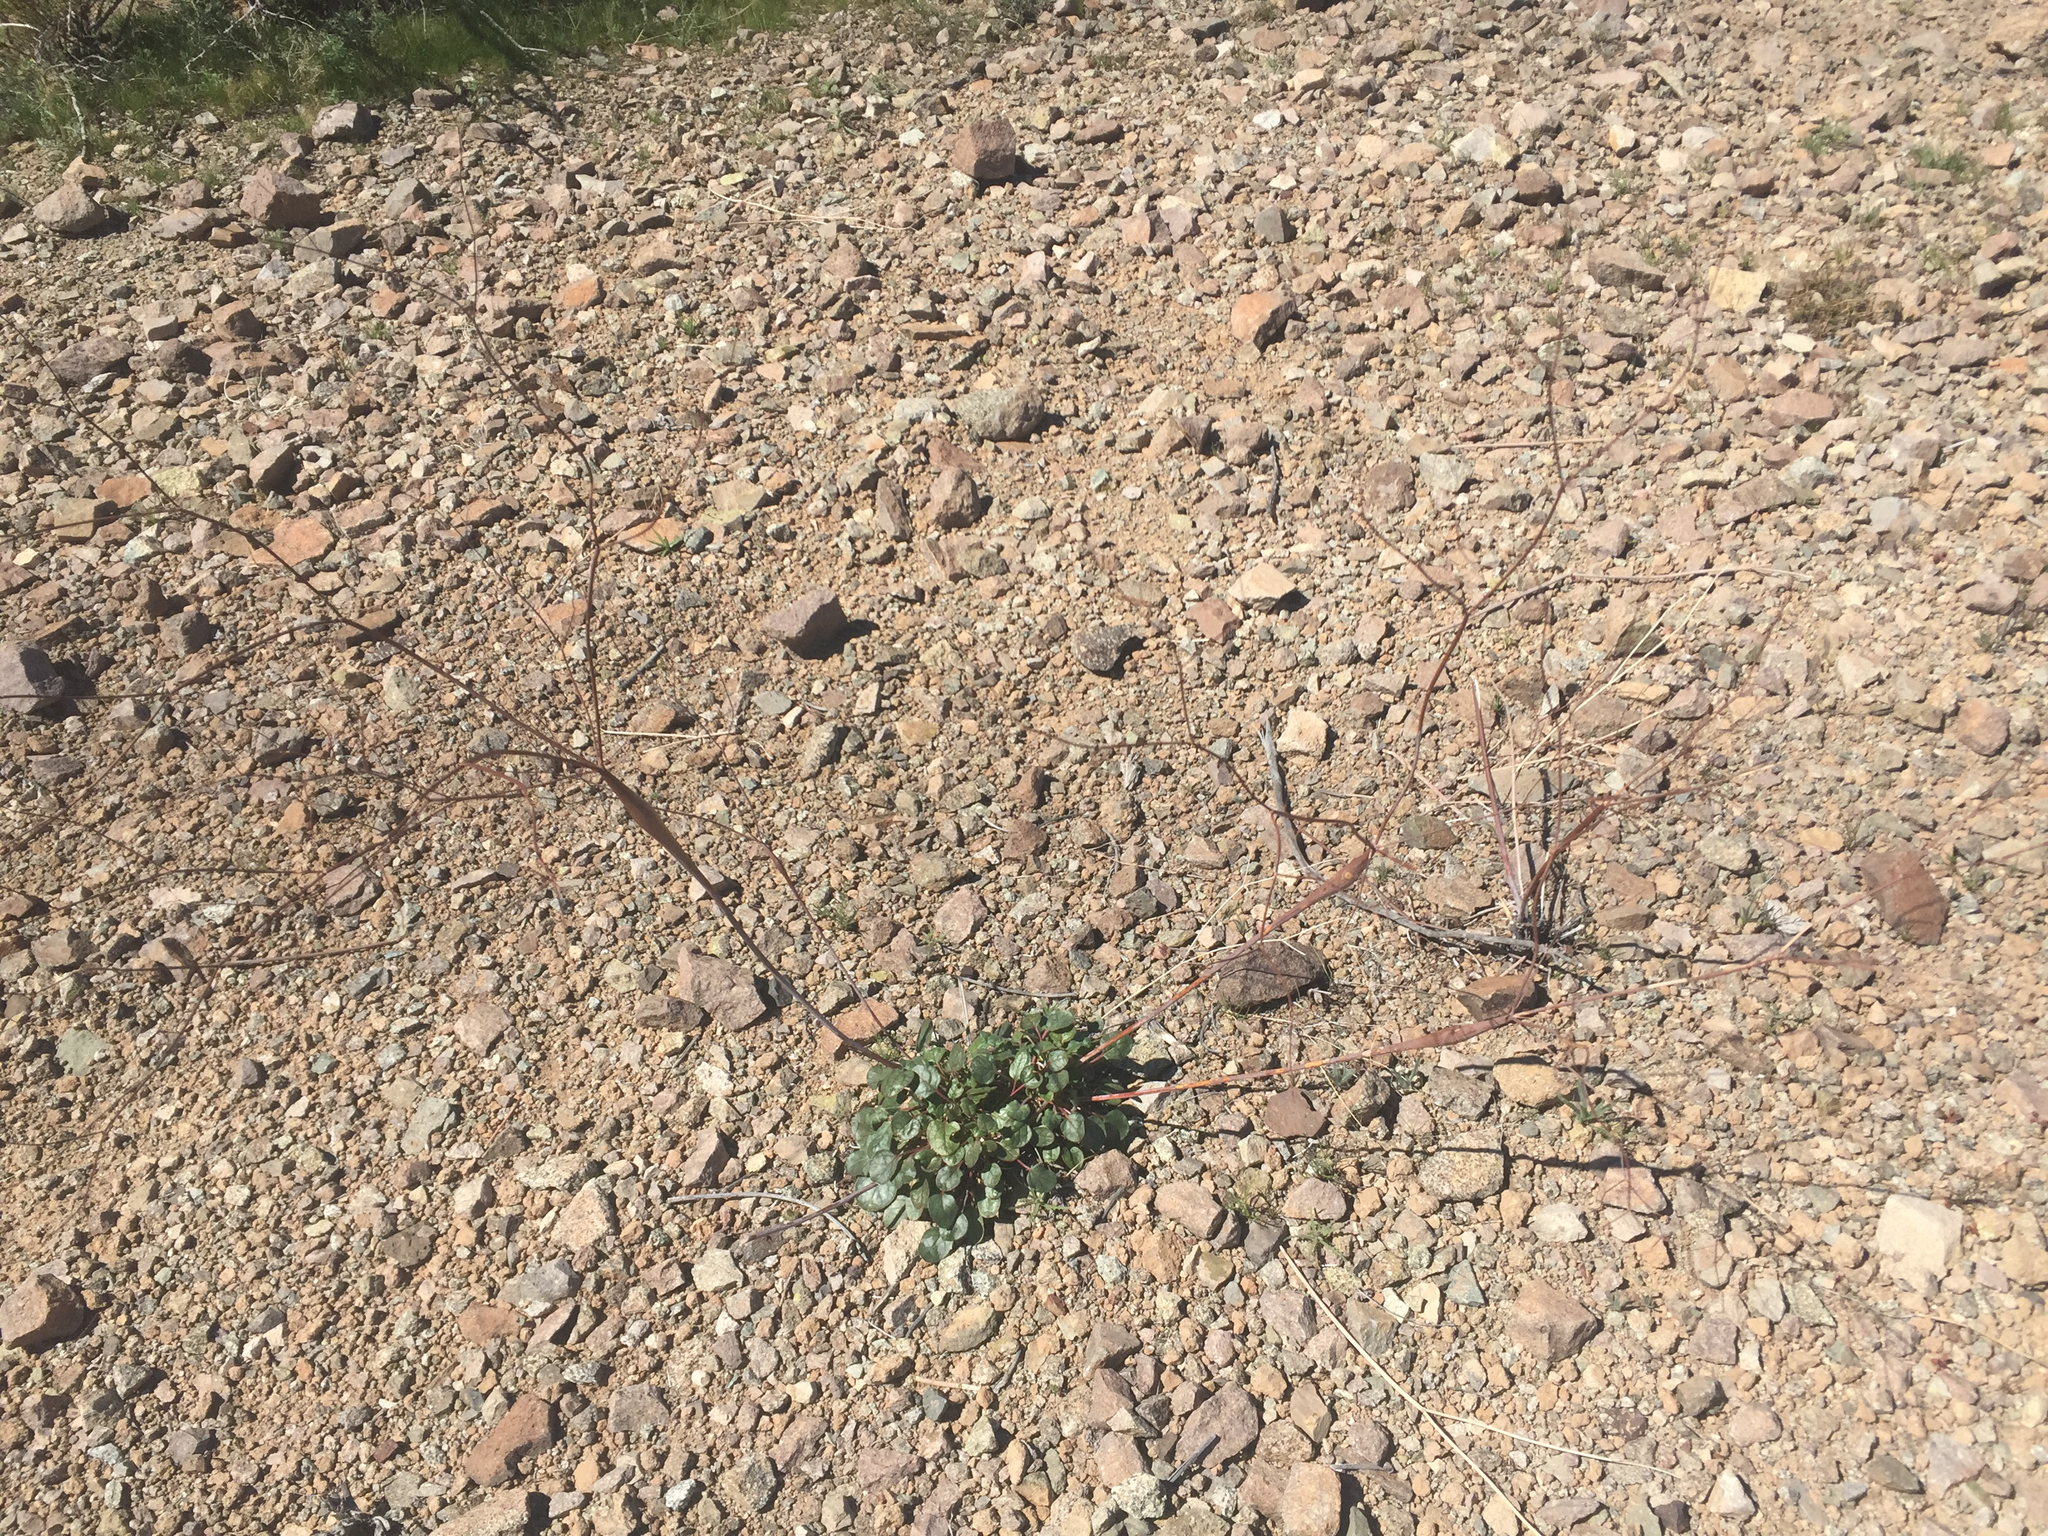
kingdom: Plantae
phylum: Tracheophyta
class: Magnoliopsida
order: Caryophyllales
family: Polygonaceae
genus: Eriogonum
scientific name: Eriogonum inflatum
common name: Desert trumpet
